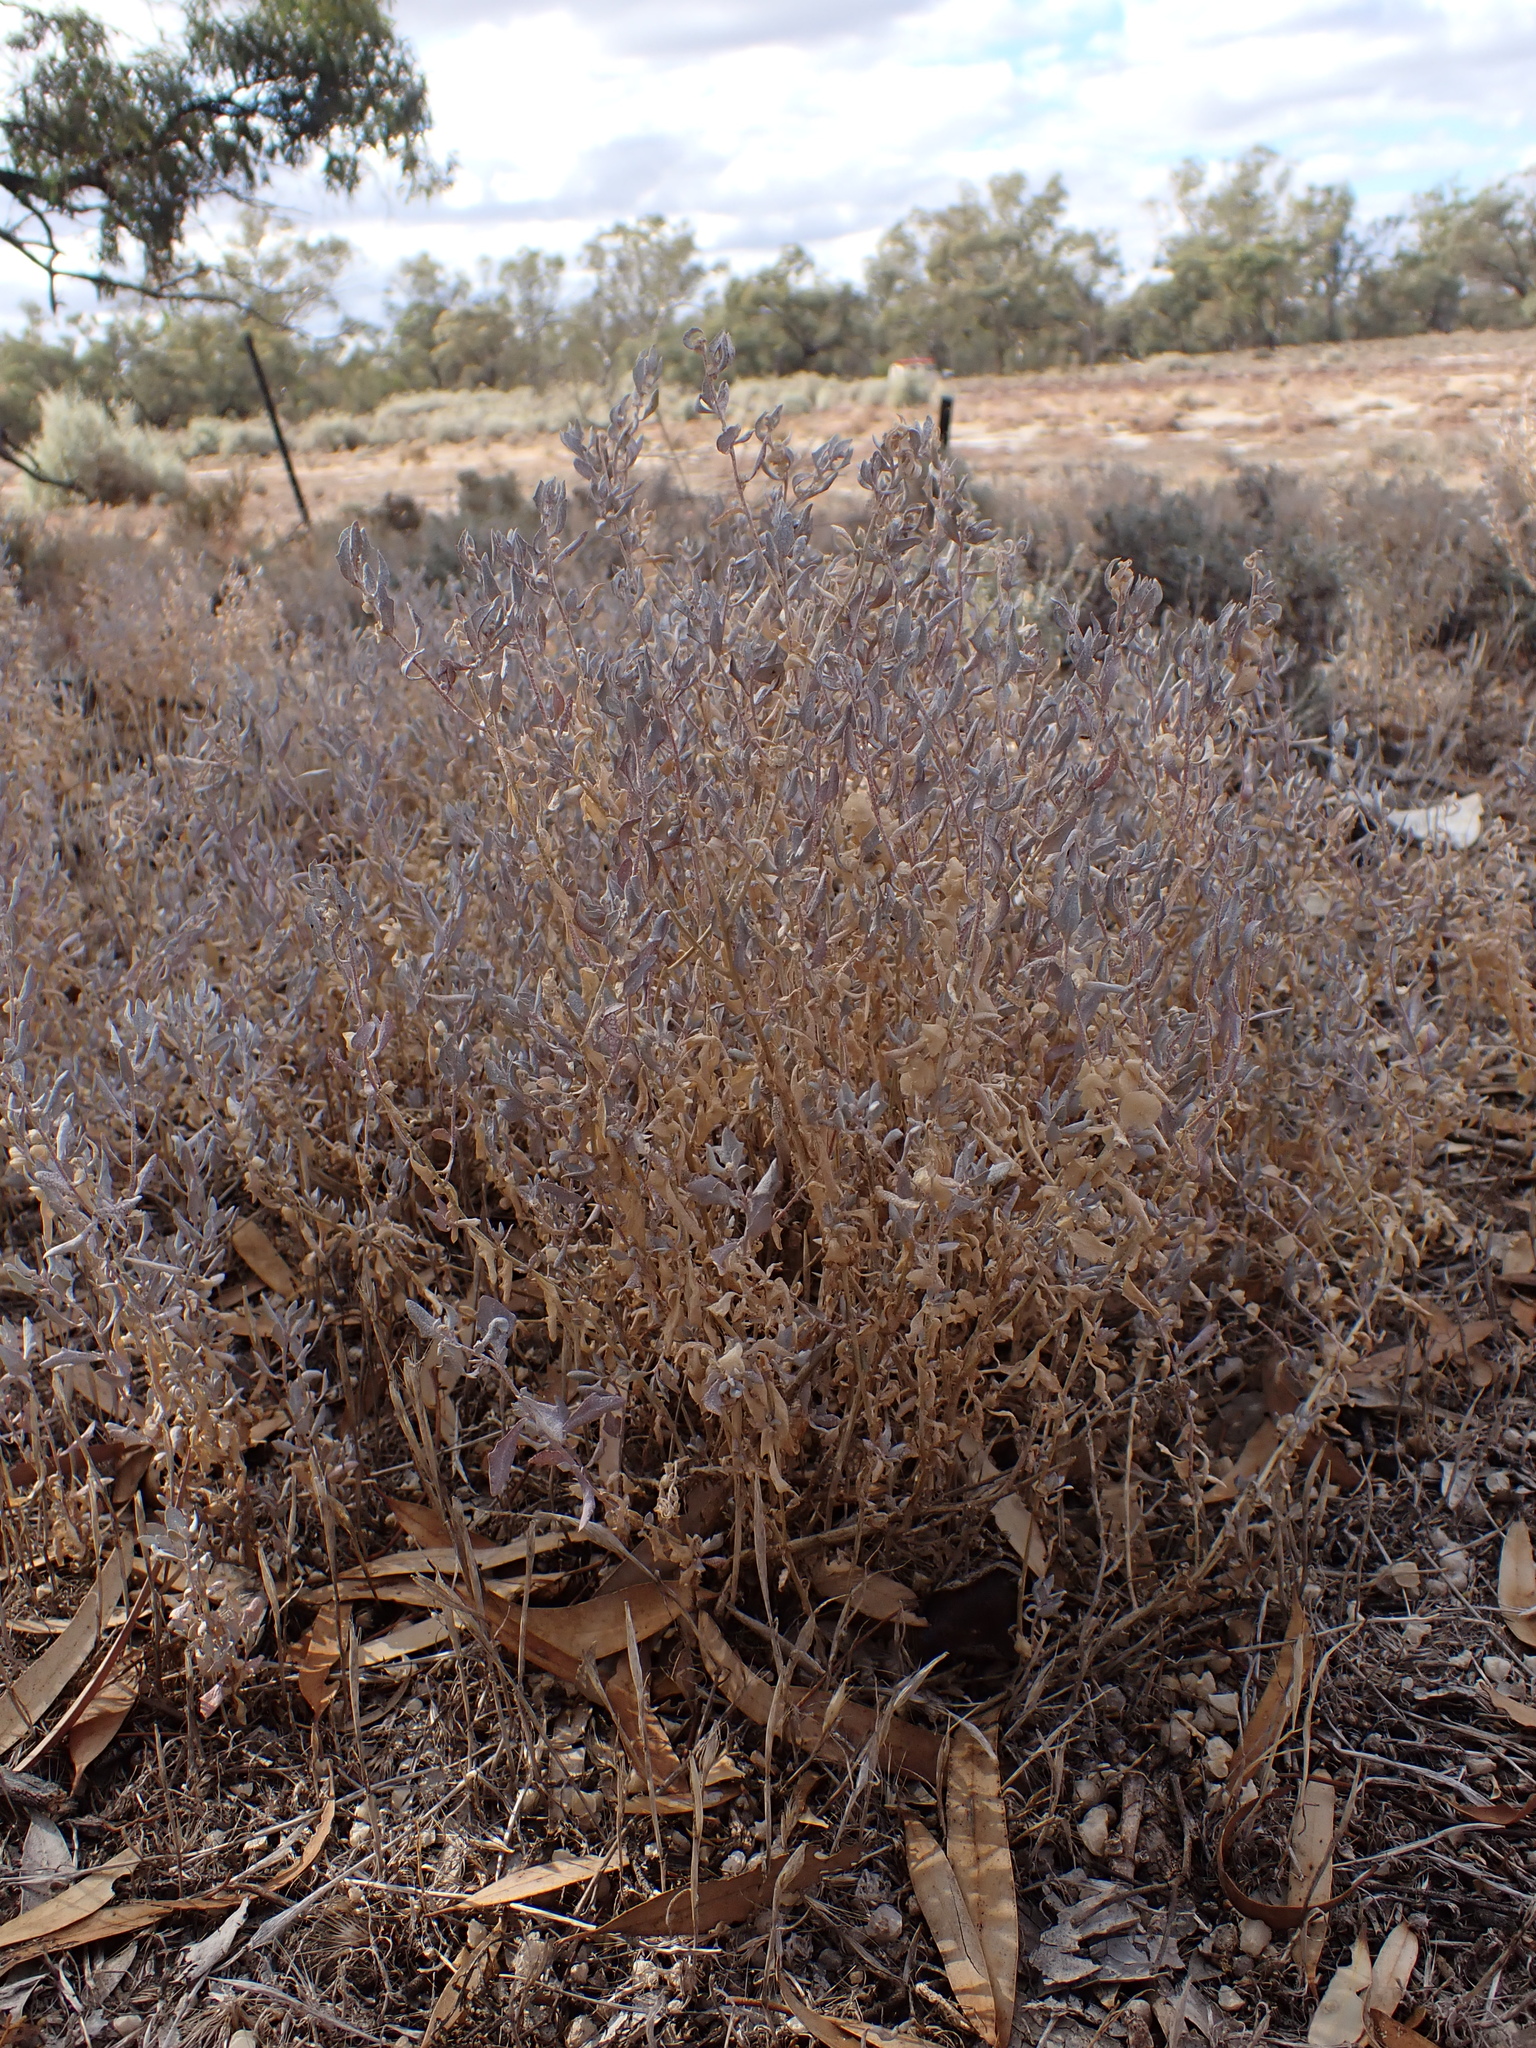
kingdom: Plantae
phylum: Tracheophyta
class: Magnoliopsida
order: Caryophyllales
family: Amaranthaceae
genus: Atriplex
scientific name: Atriplex lindleyi
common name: Lindley's saltbush
